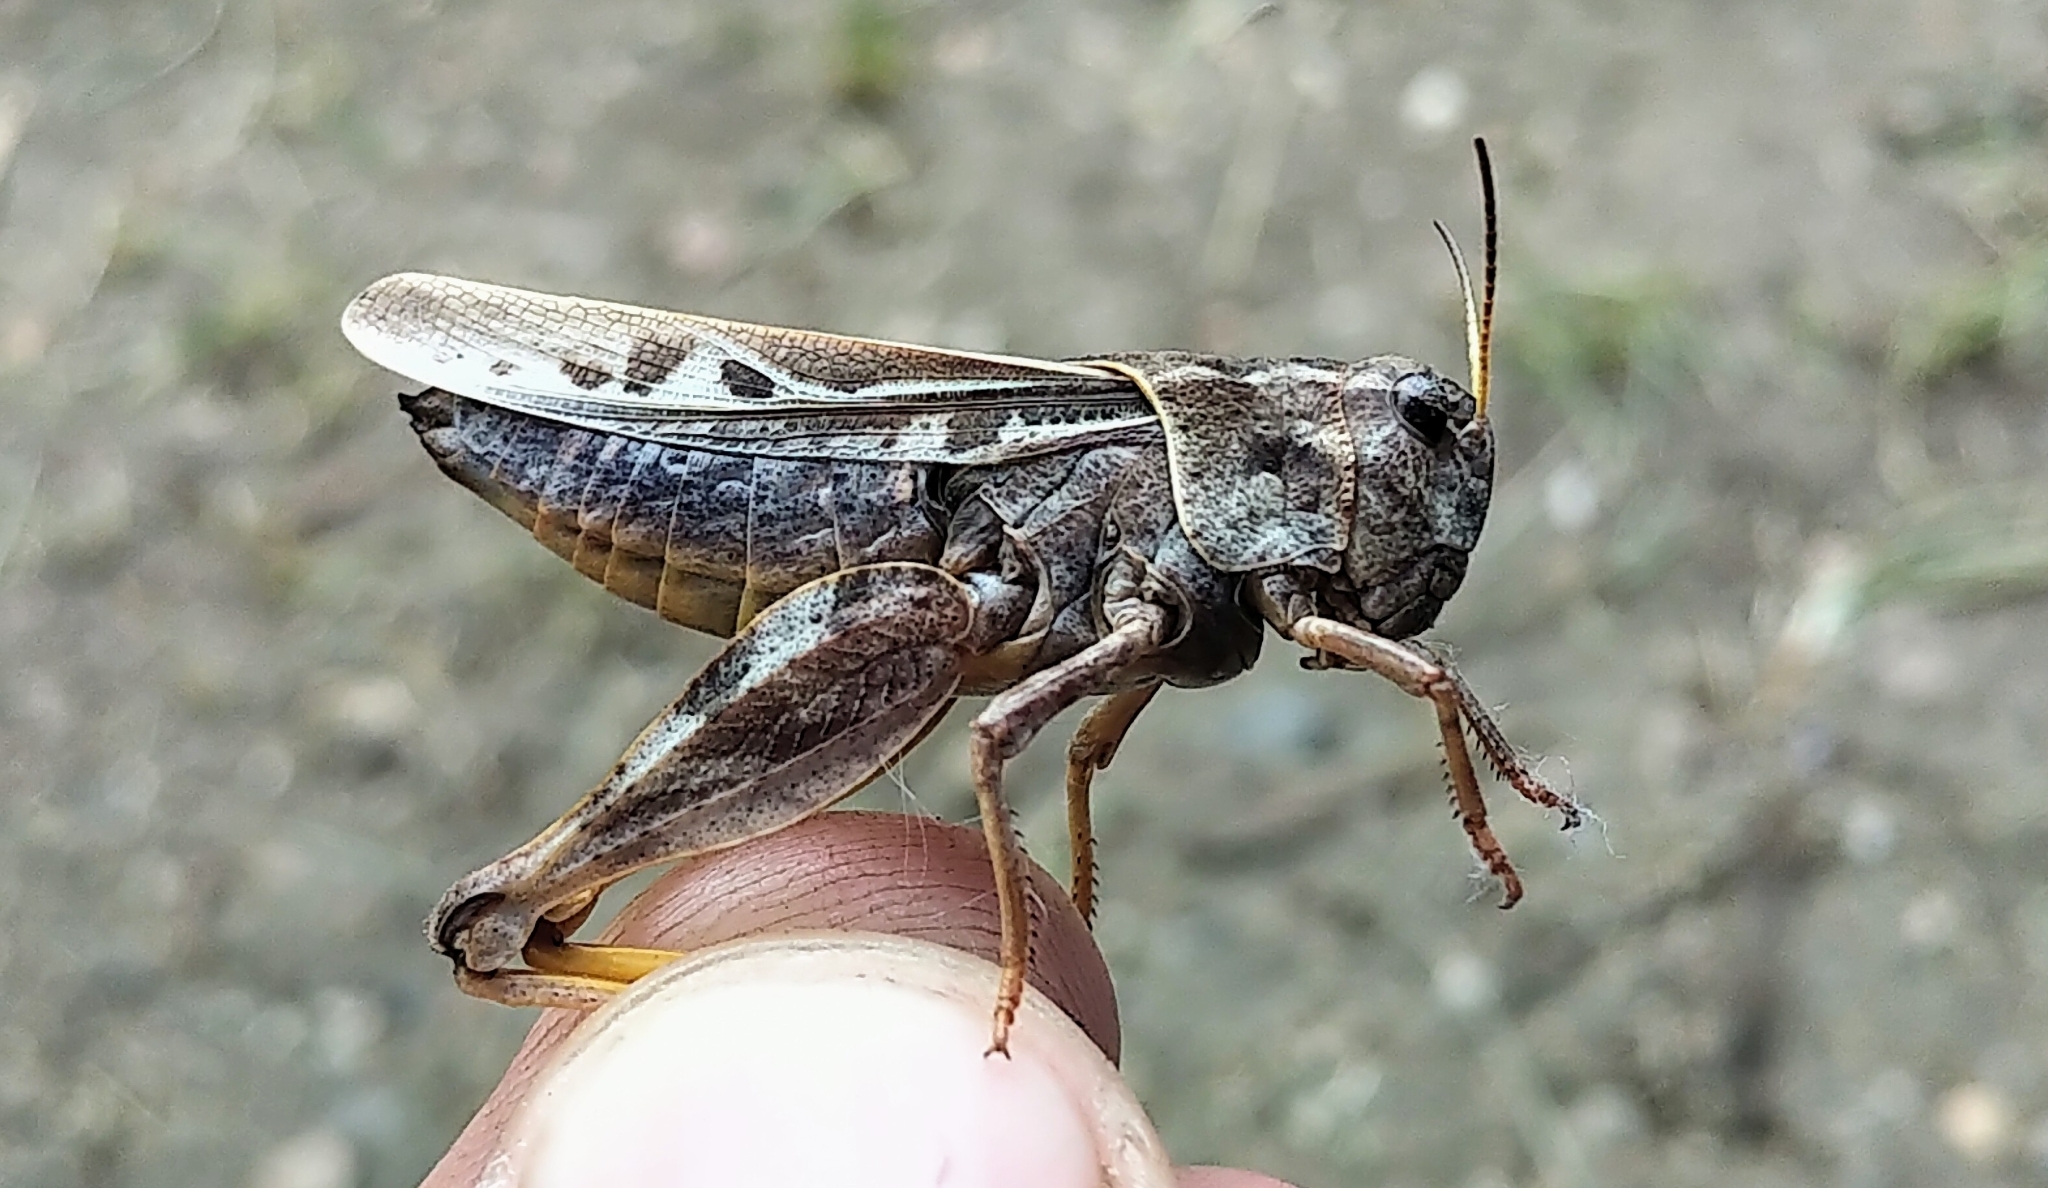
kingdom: Animalia
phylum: Arthropoda
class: Insecta
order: Orthoptera
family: Acrididae
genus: Pardalophora
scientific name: Pardalophora apiculata
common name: Coral-winged locust
